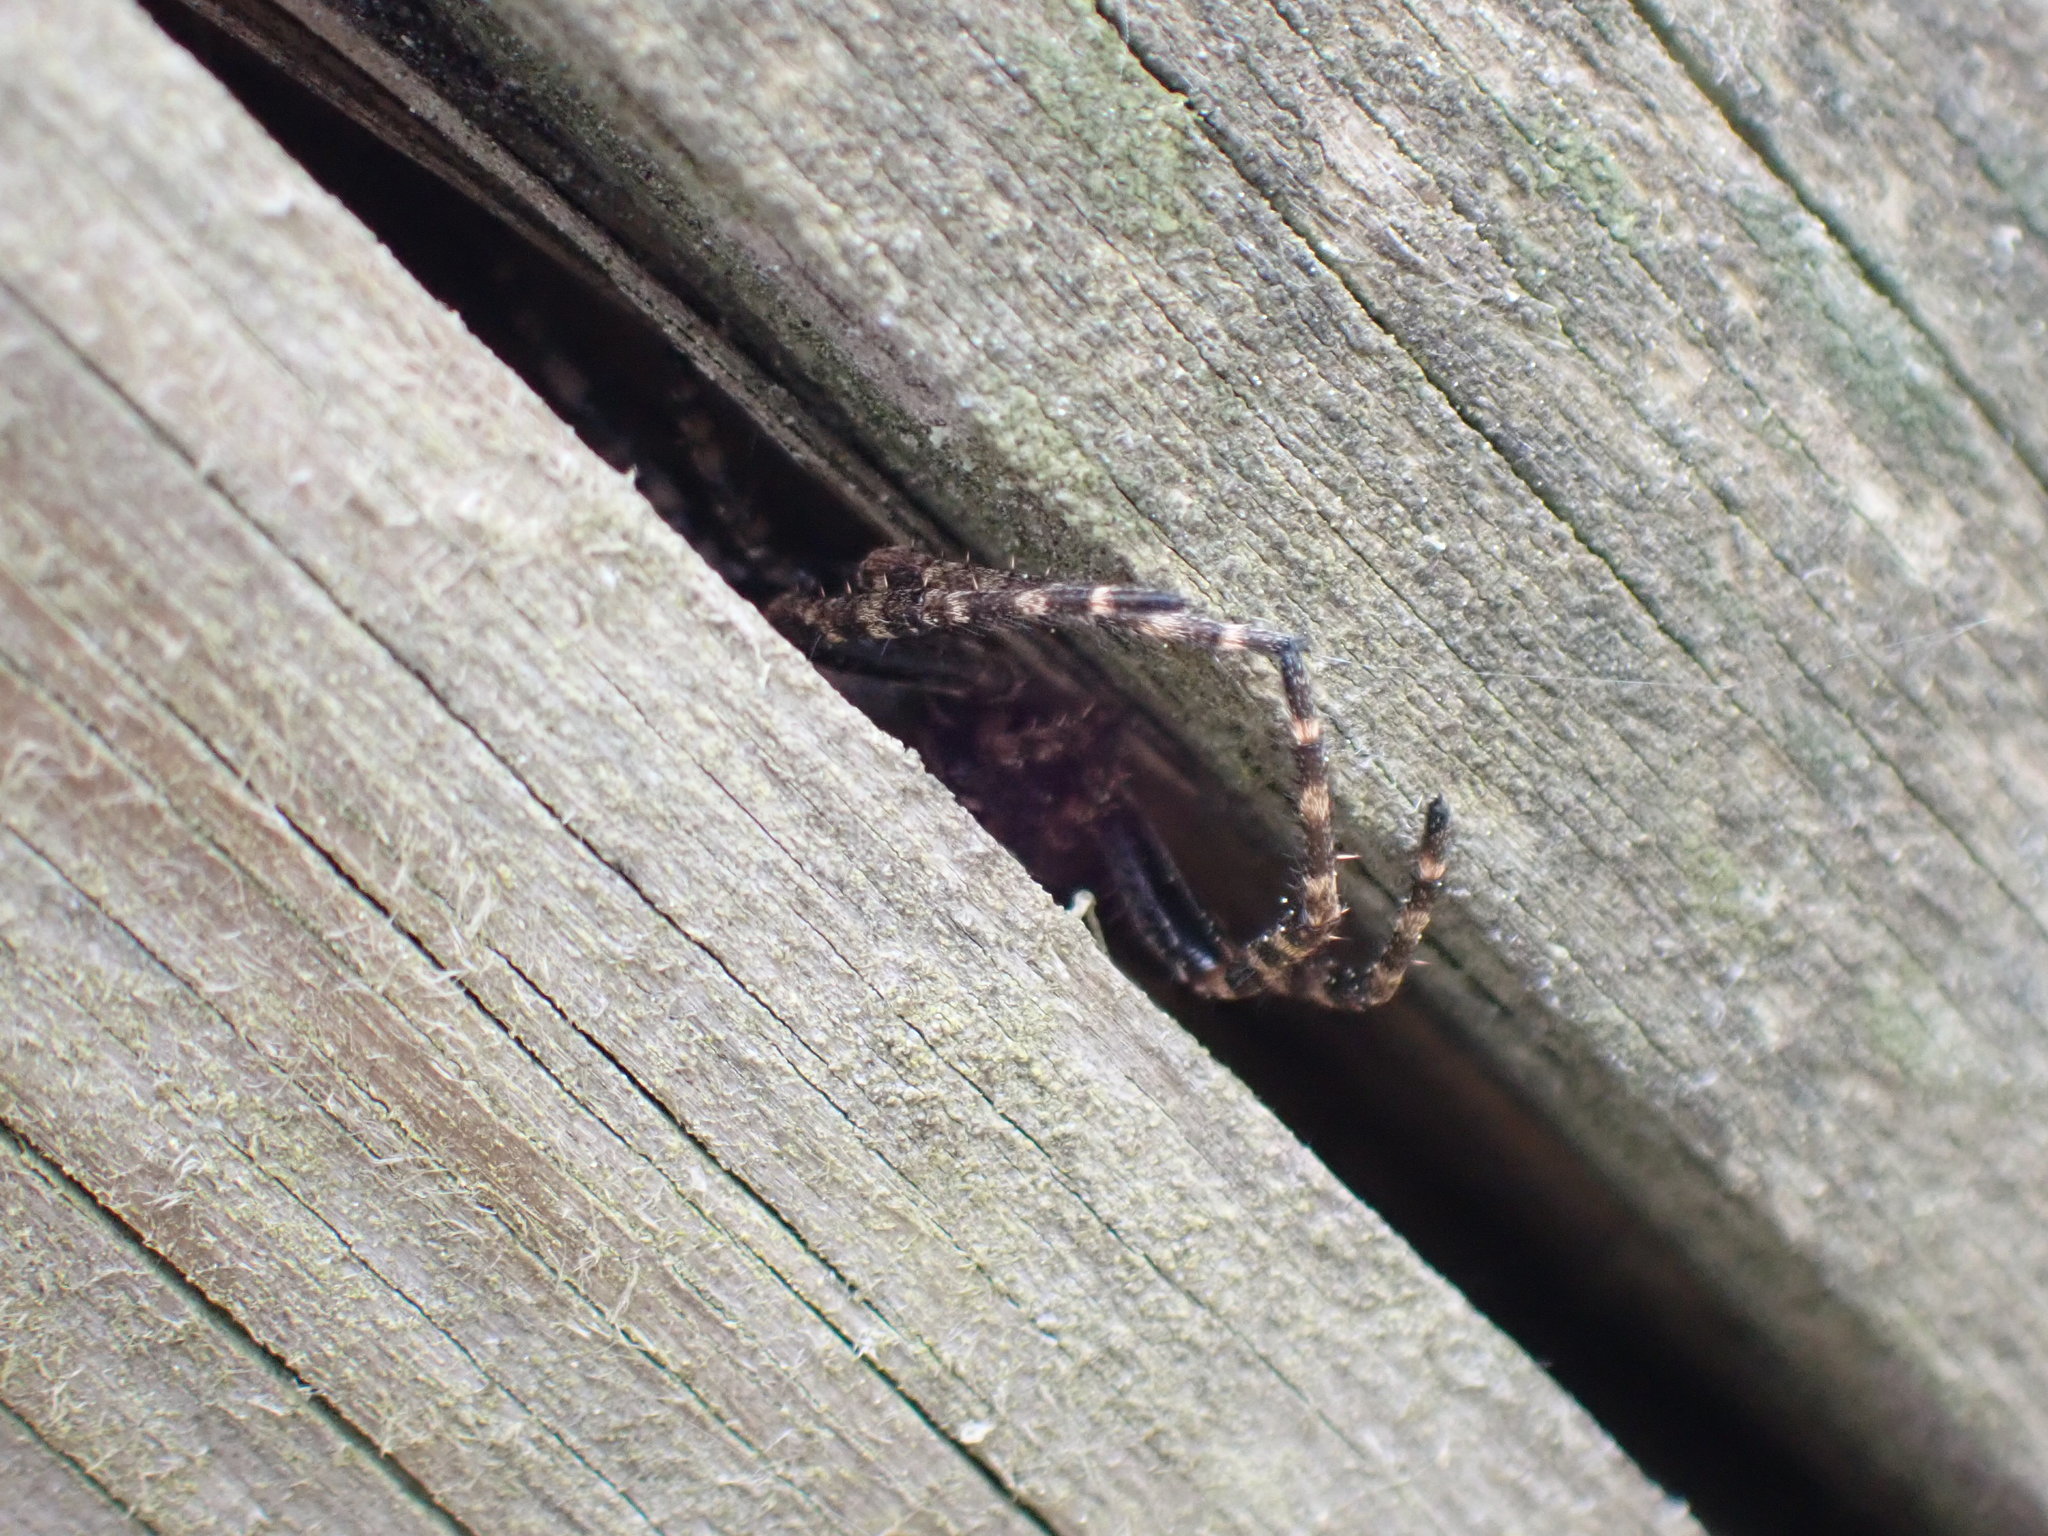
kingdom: Animalia
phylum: Arthropoda
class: Arachnida
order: Araneae
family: Araneidae
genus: Nuctenea
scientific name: Nuctenea umbratica
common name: Toad spider
